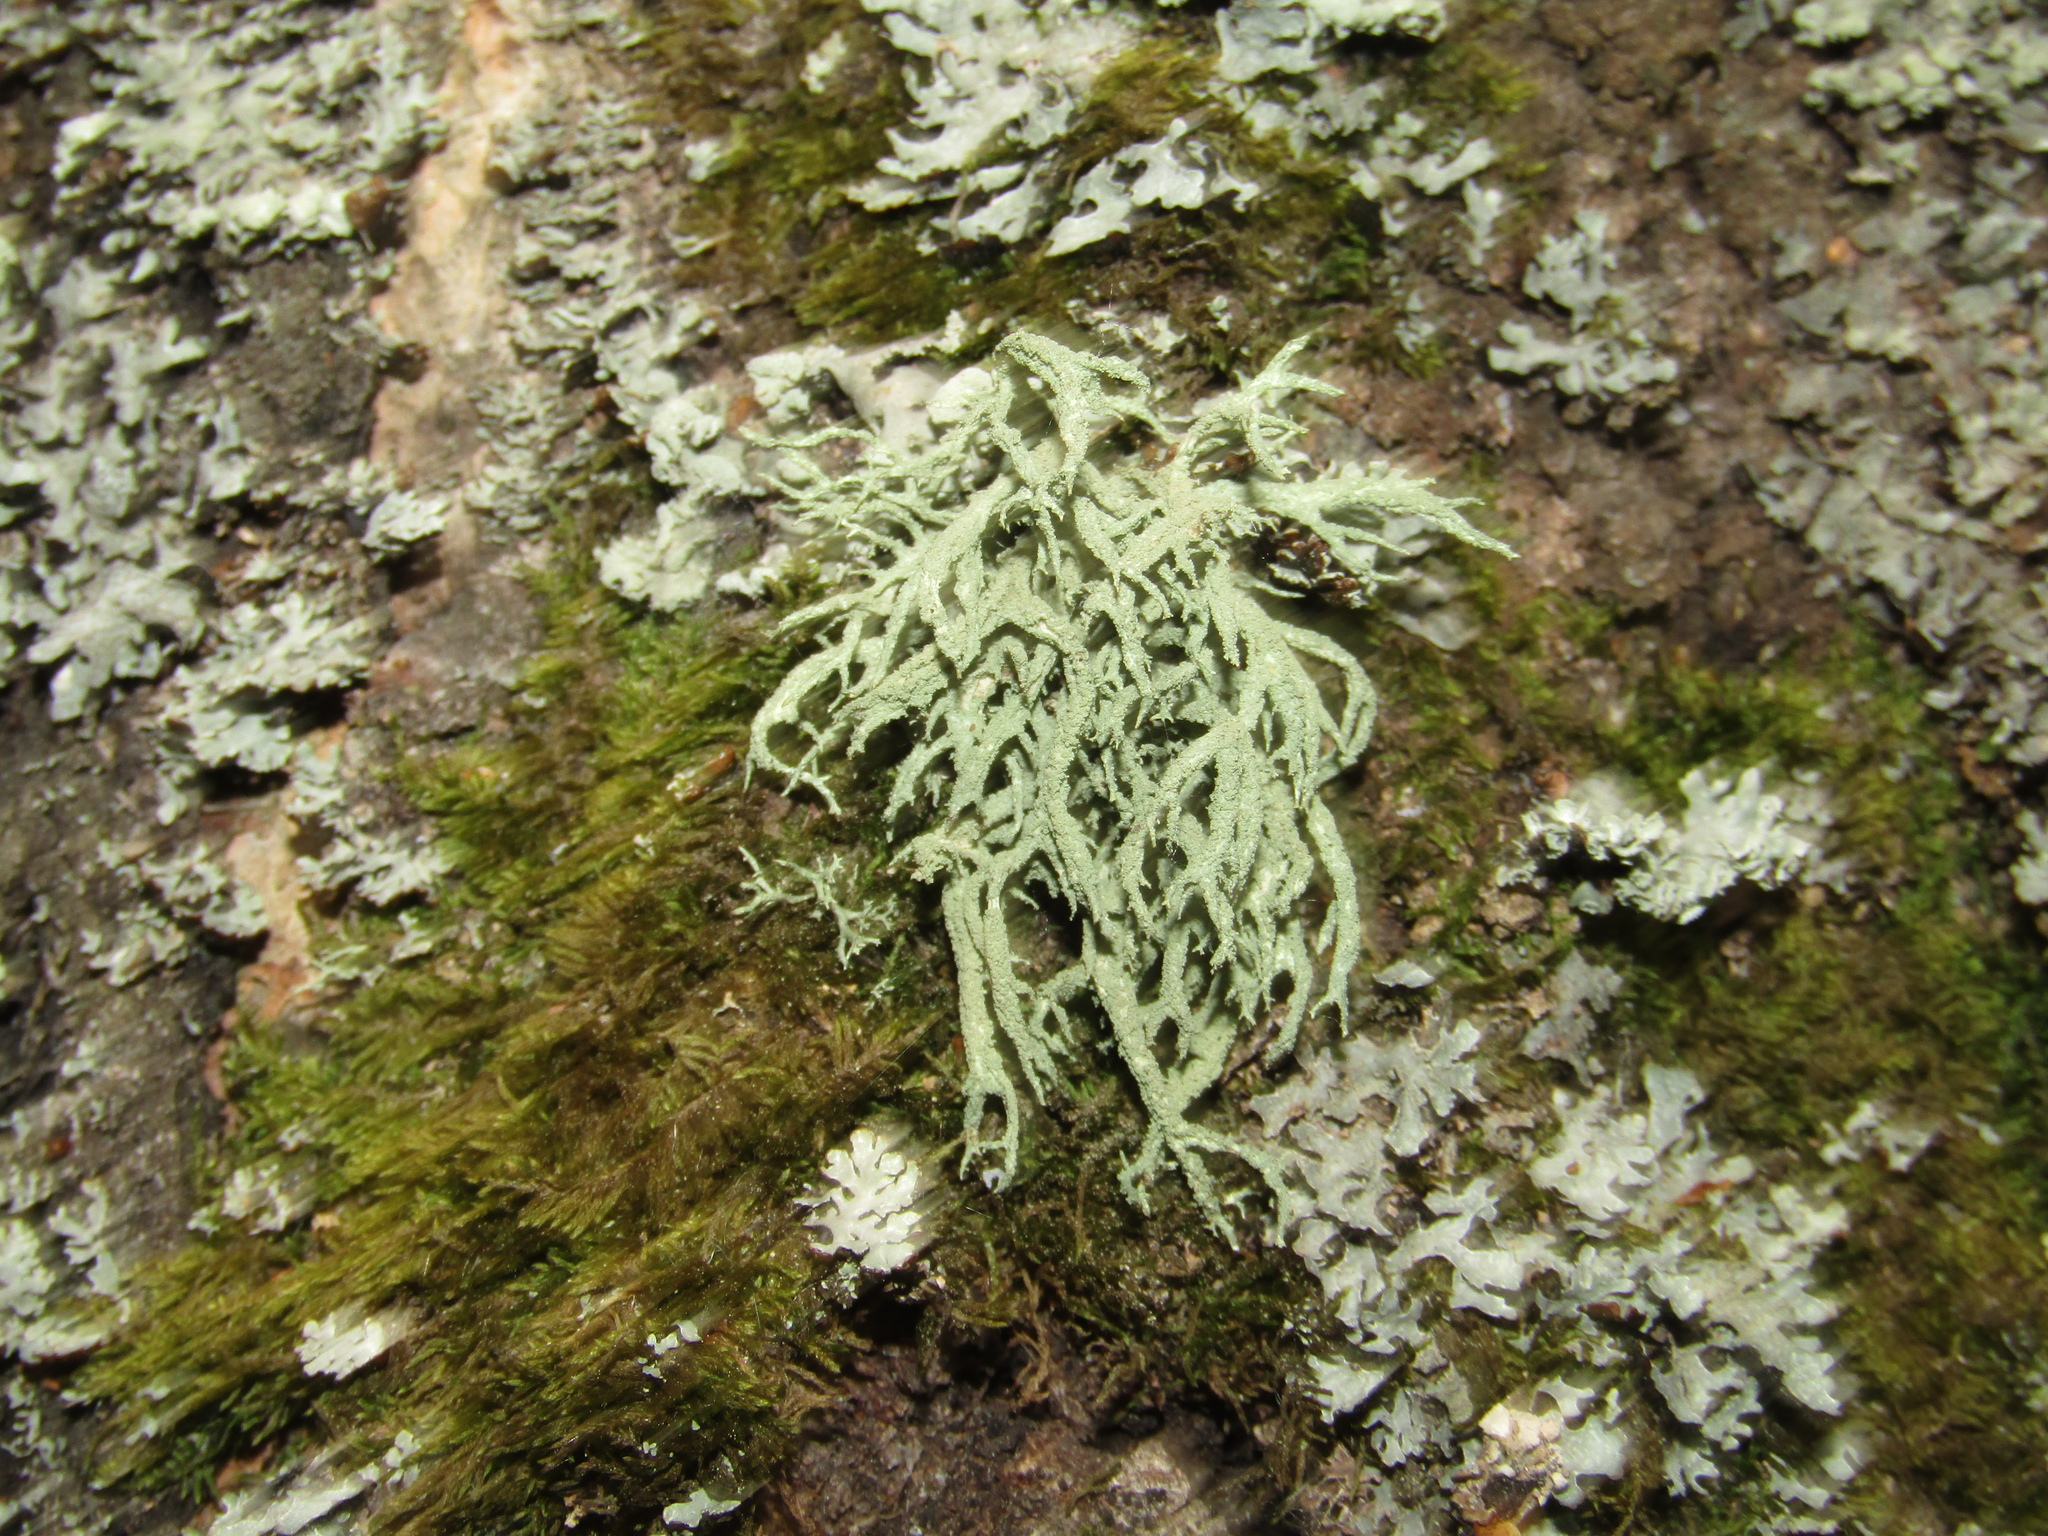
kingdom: Fungi
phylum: Ascomycota
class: Lecanoromycetes
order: Lecanorales
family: Parmeliaceae
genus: Evernia
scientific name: Evernia mesomorpha
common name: Boreal oak moss lichen
